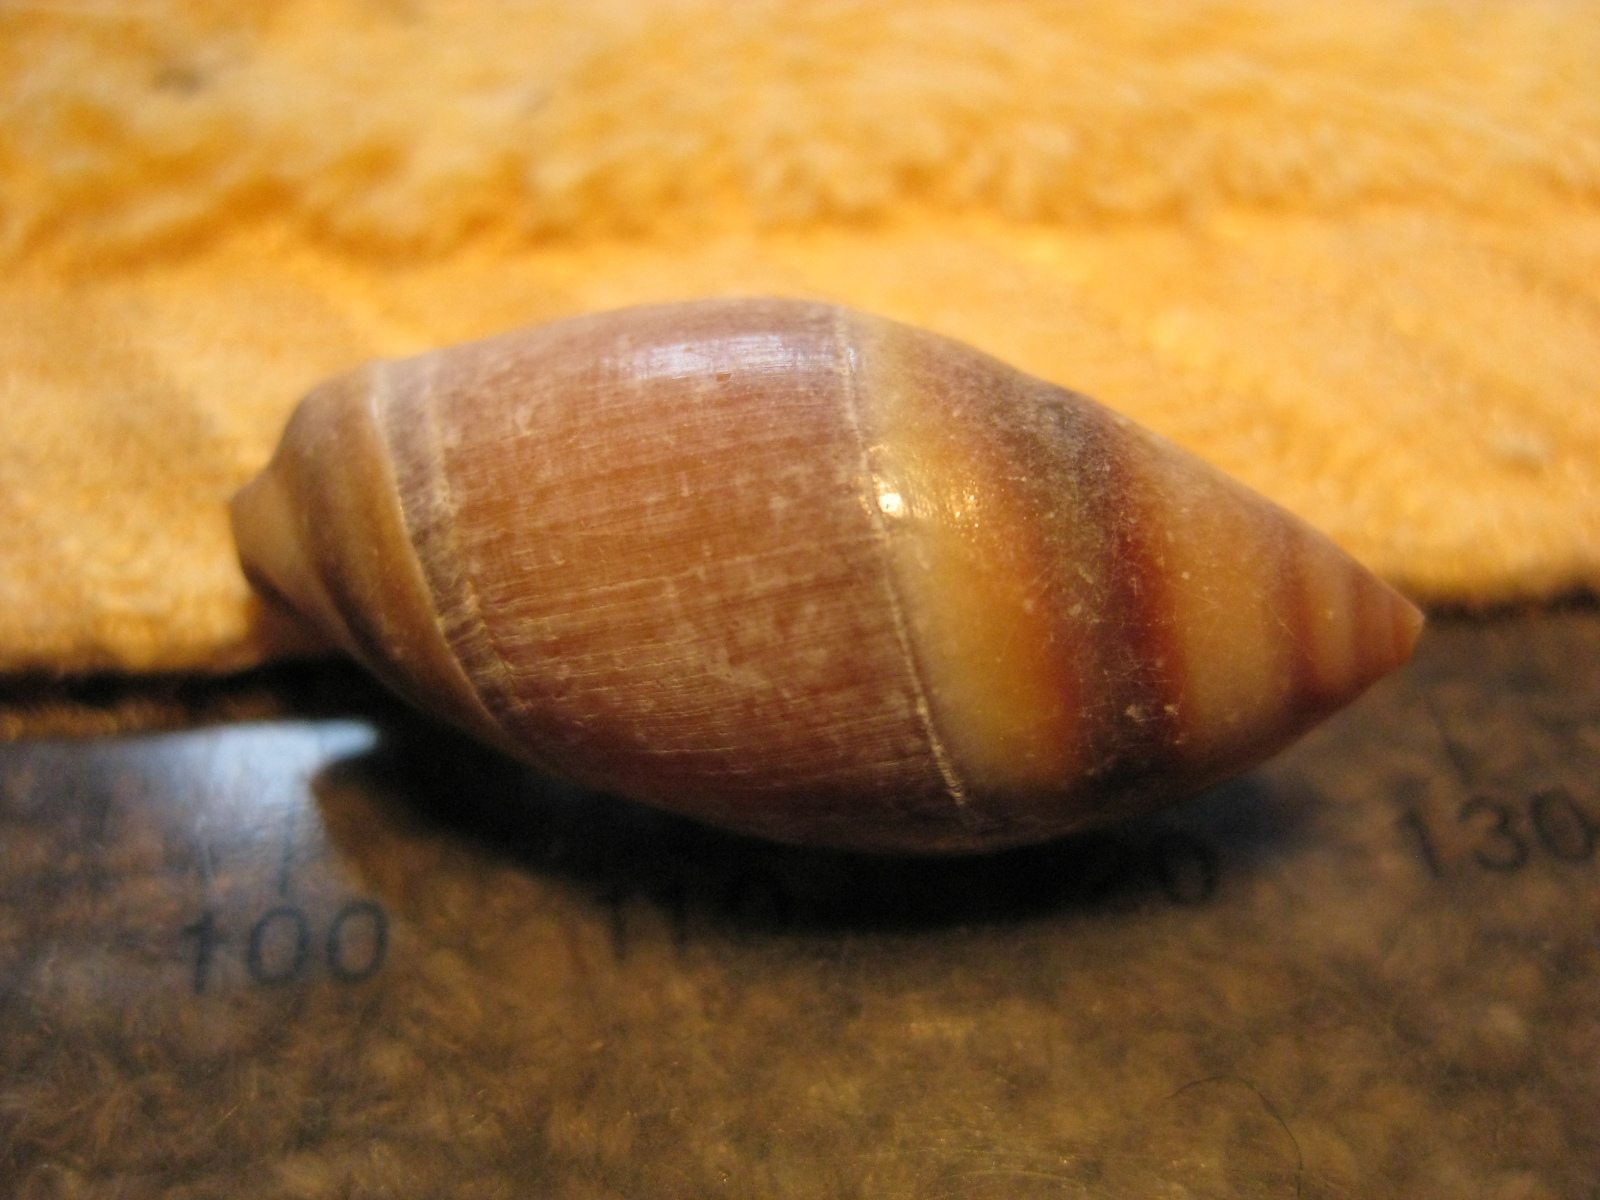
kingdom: Animalia
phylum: Mollusca
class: Gastropoda
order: Neogastropoda
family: Ancillariidae
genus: Amalda
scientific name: Amalda australis
